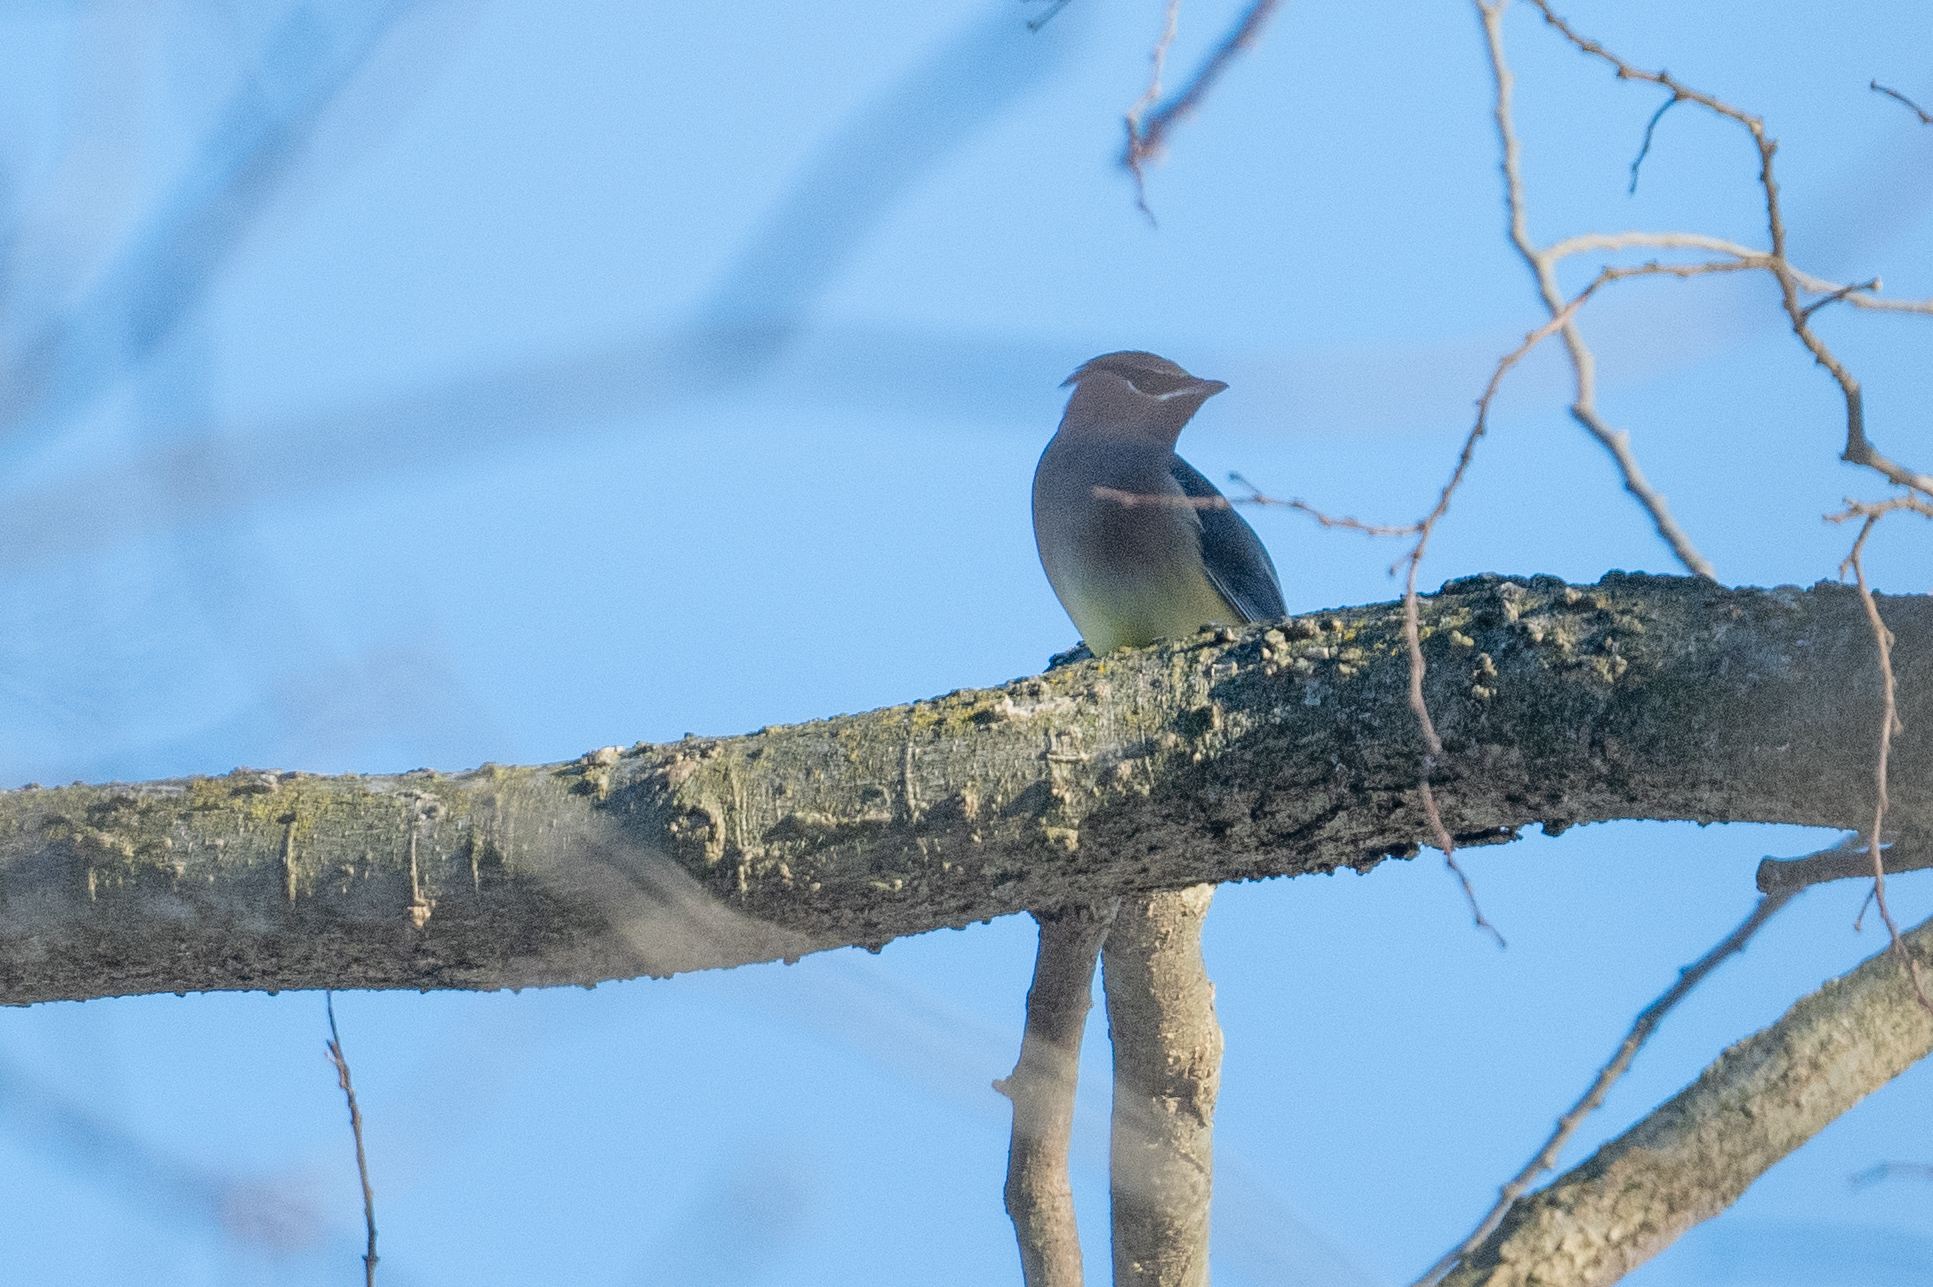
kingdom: Animalia
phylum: Chordata
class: Aves
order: Passeriformes
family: Bombycillidae
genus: Bombycilla
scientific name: Bombycilla cedrorum
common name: Cedar waxwing
